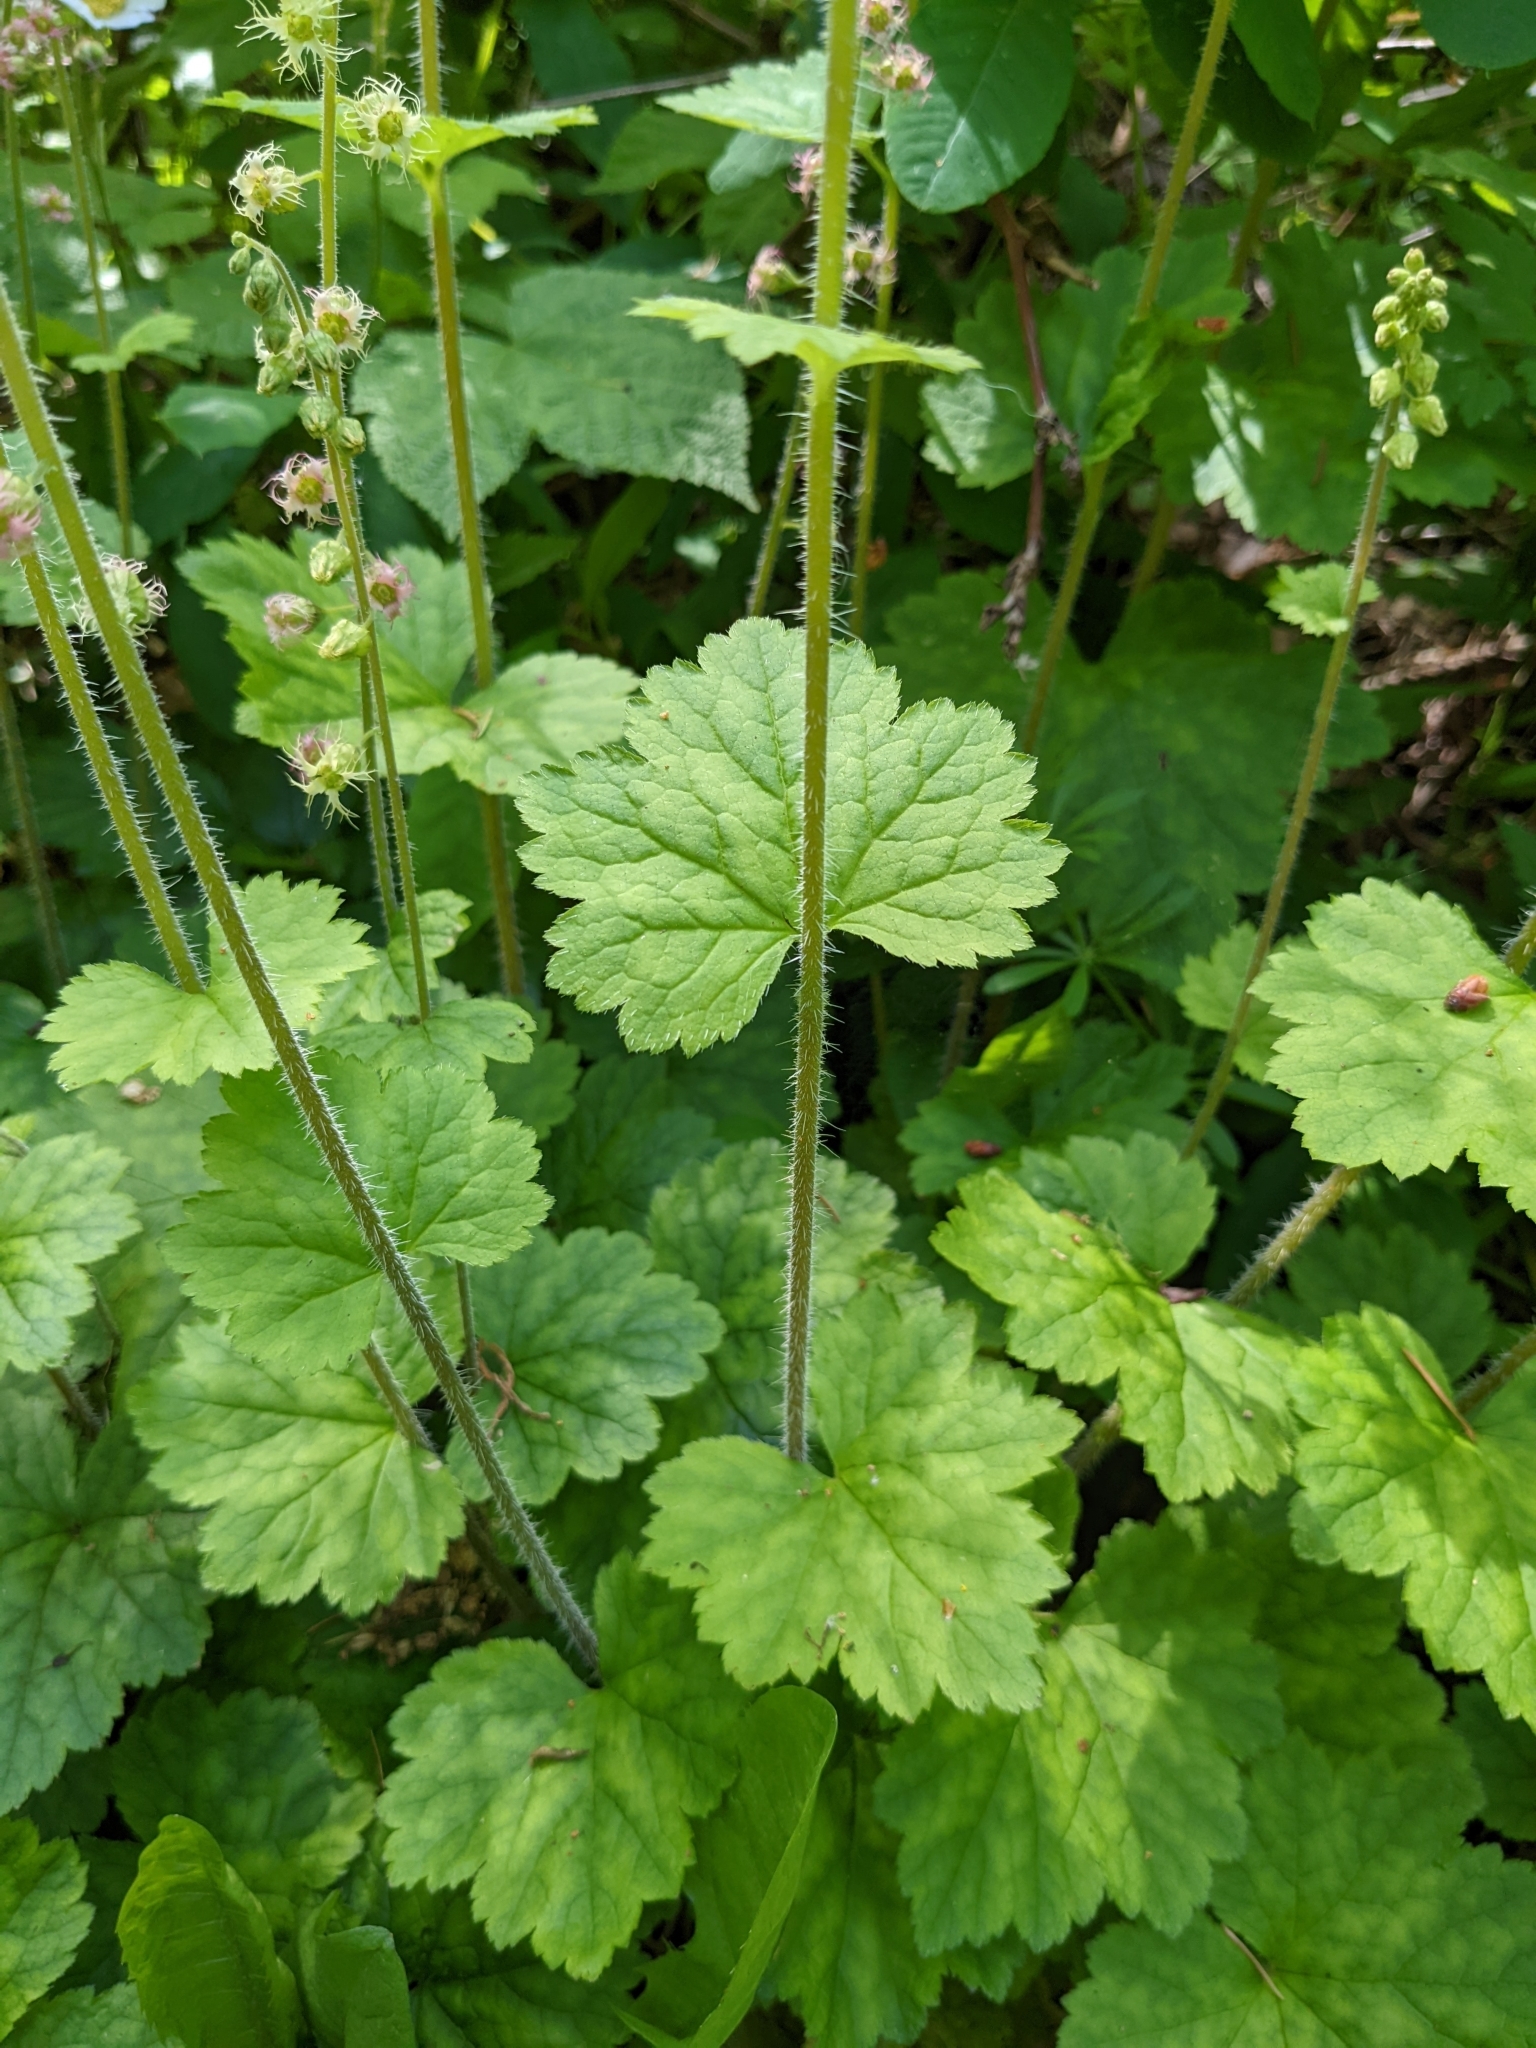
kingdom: Plantae
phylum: Tracheophyta
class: Magnoliopsida
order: Saxifragales
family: Saxifragaceae
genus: Tellima
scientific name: Tellima grandiflora
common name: Fringecups
